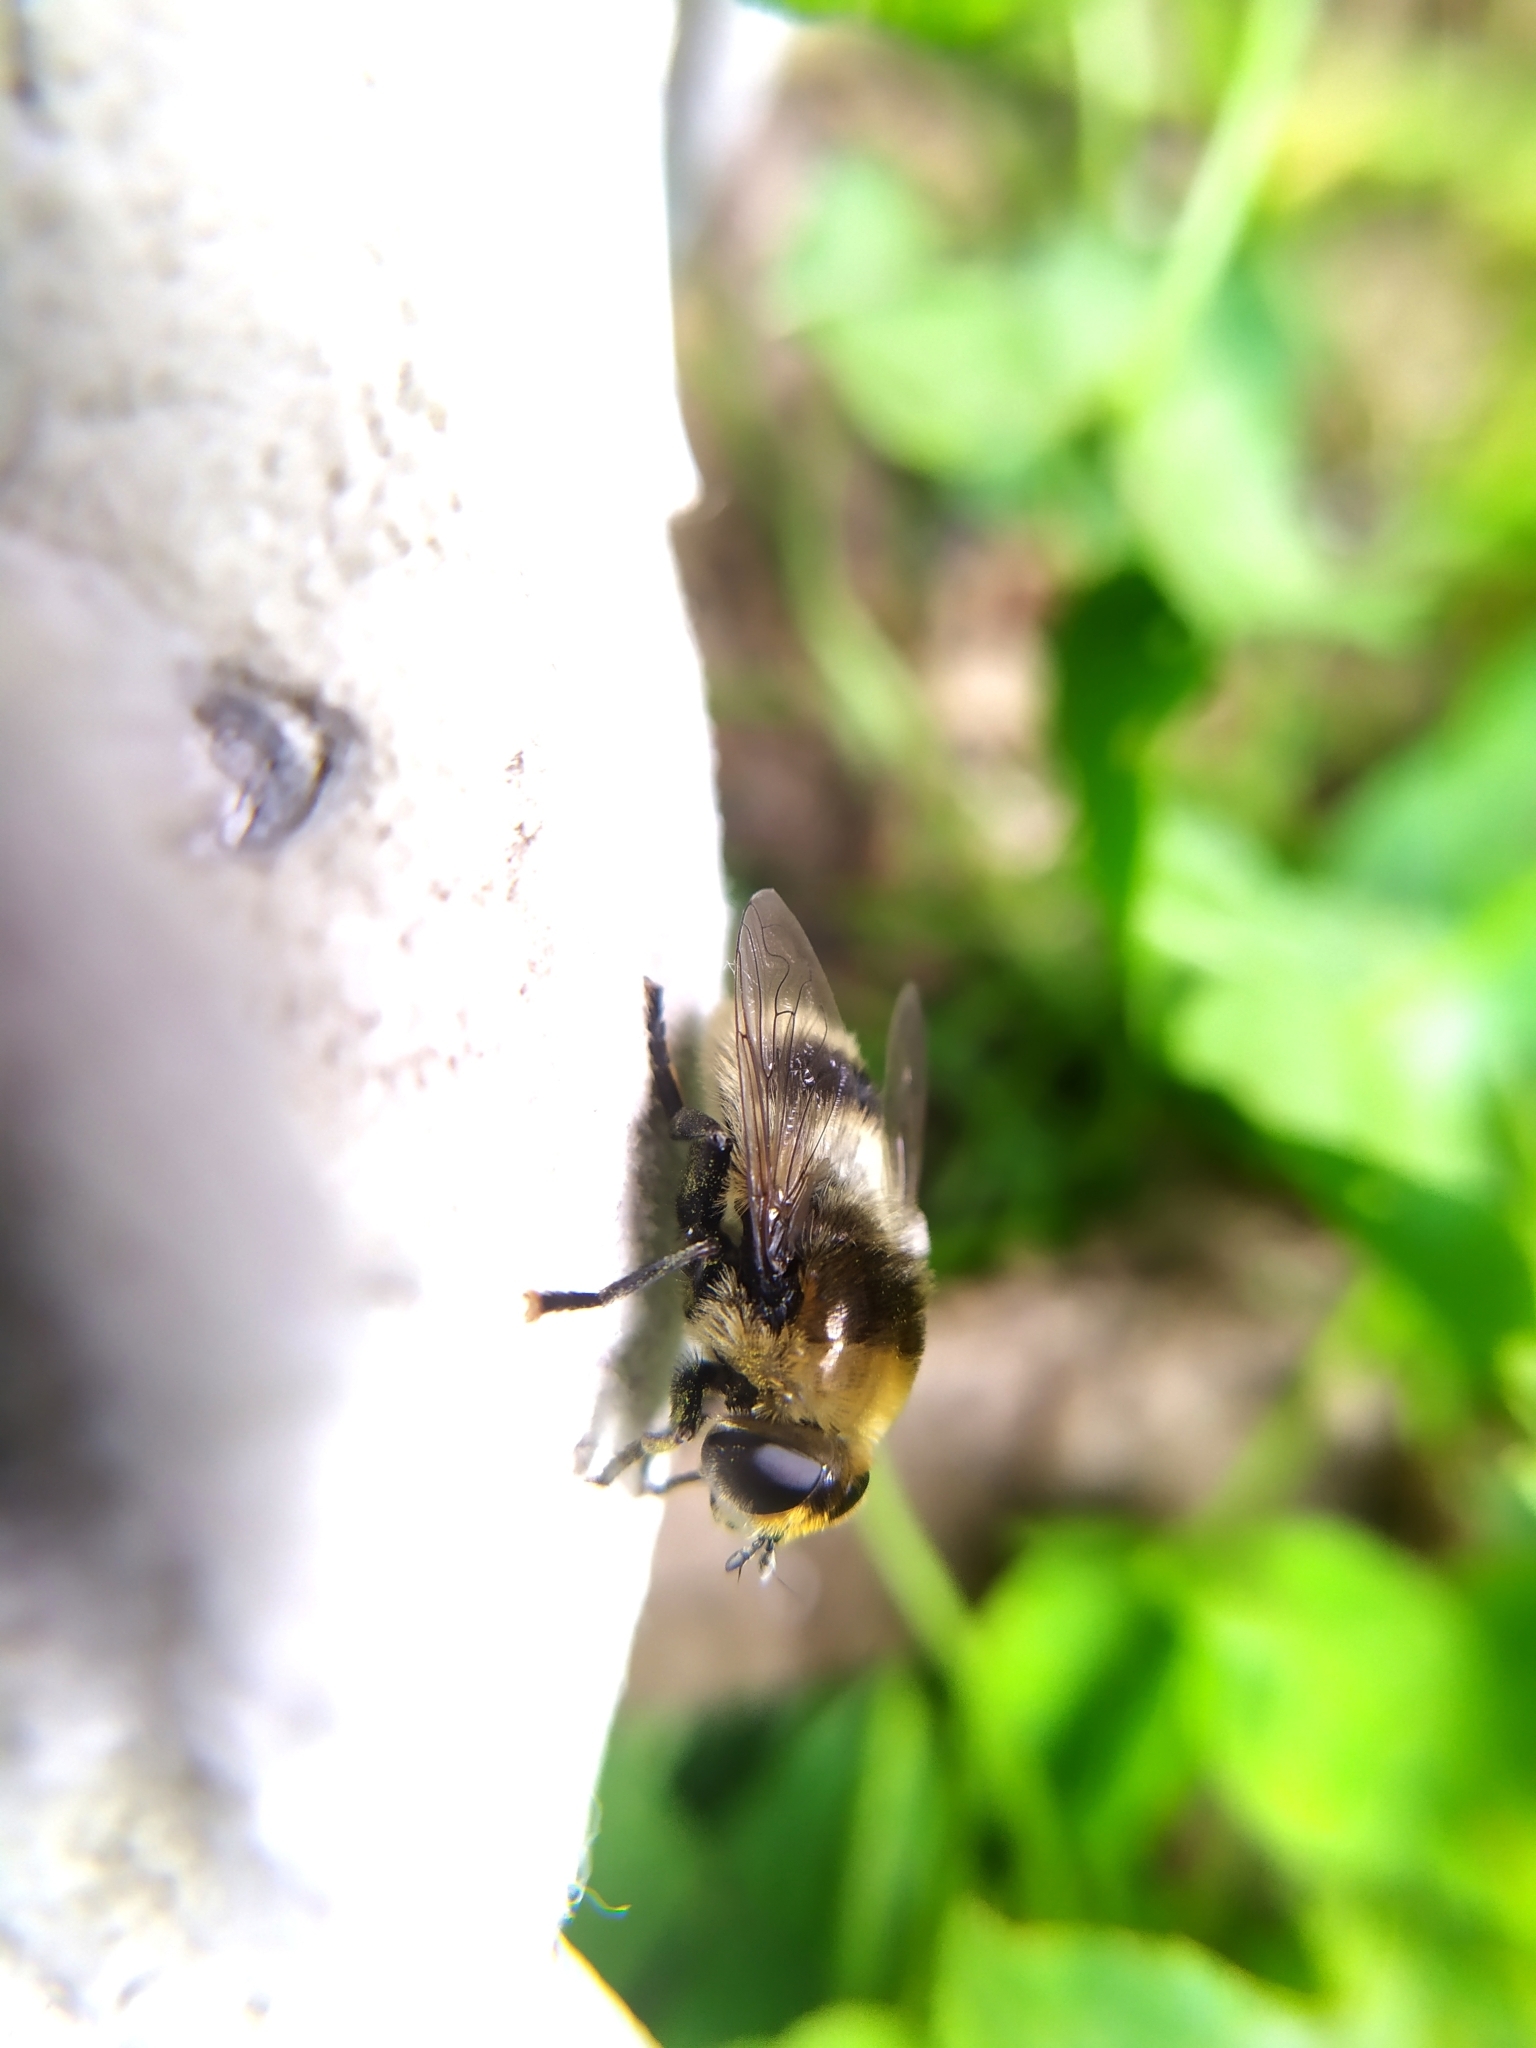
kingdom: Animalia
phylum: Arthropoda
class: Insecta
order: Diptera
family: Syrphidae
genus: Merodon
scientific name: Merodon equestris
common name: Greater bulb-fly
